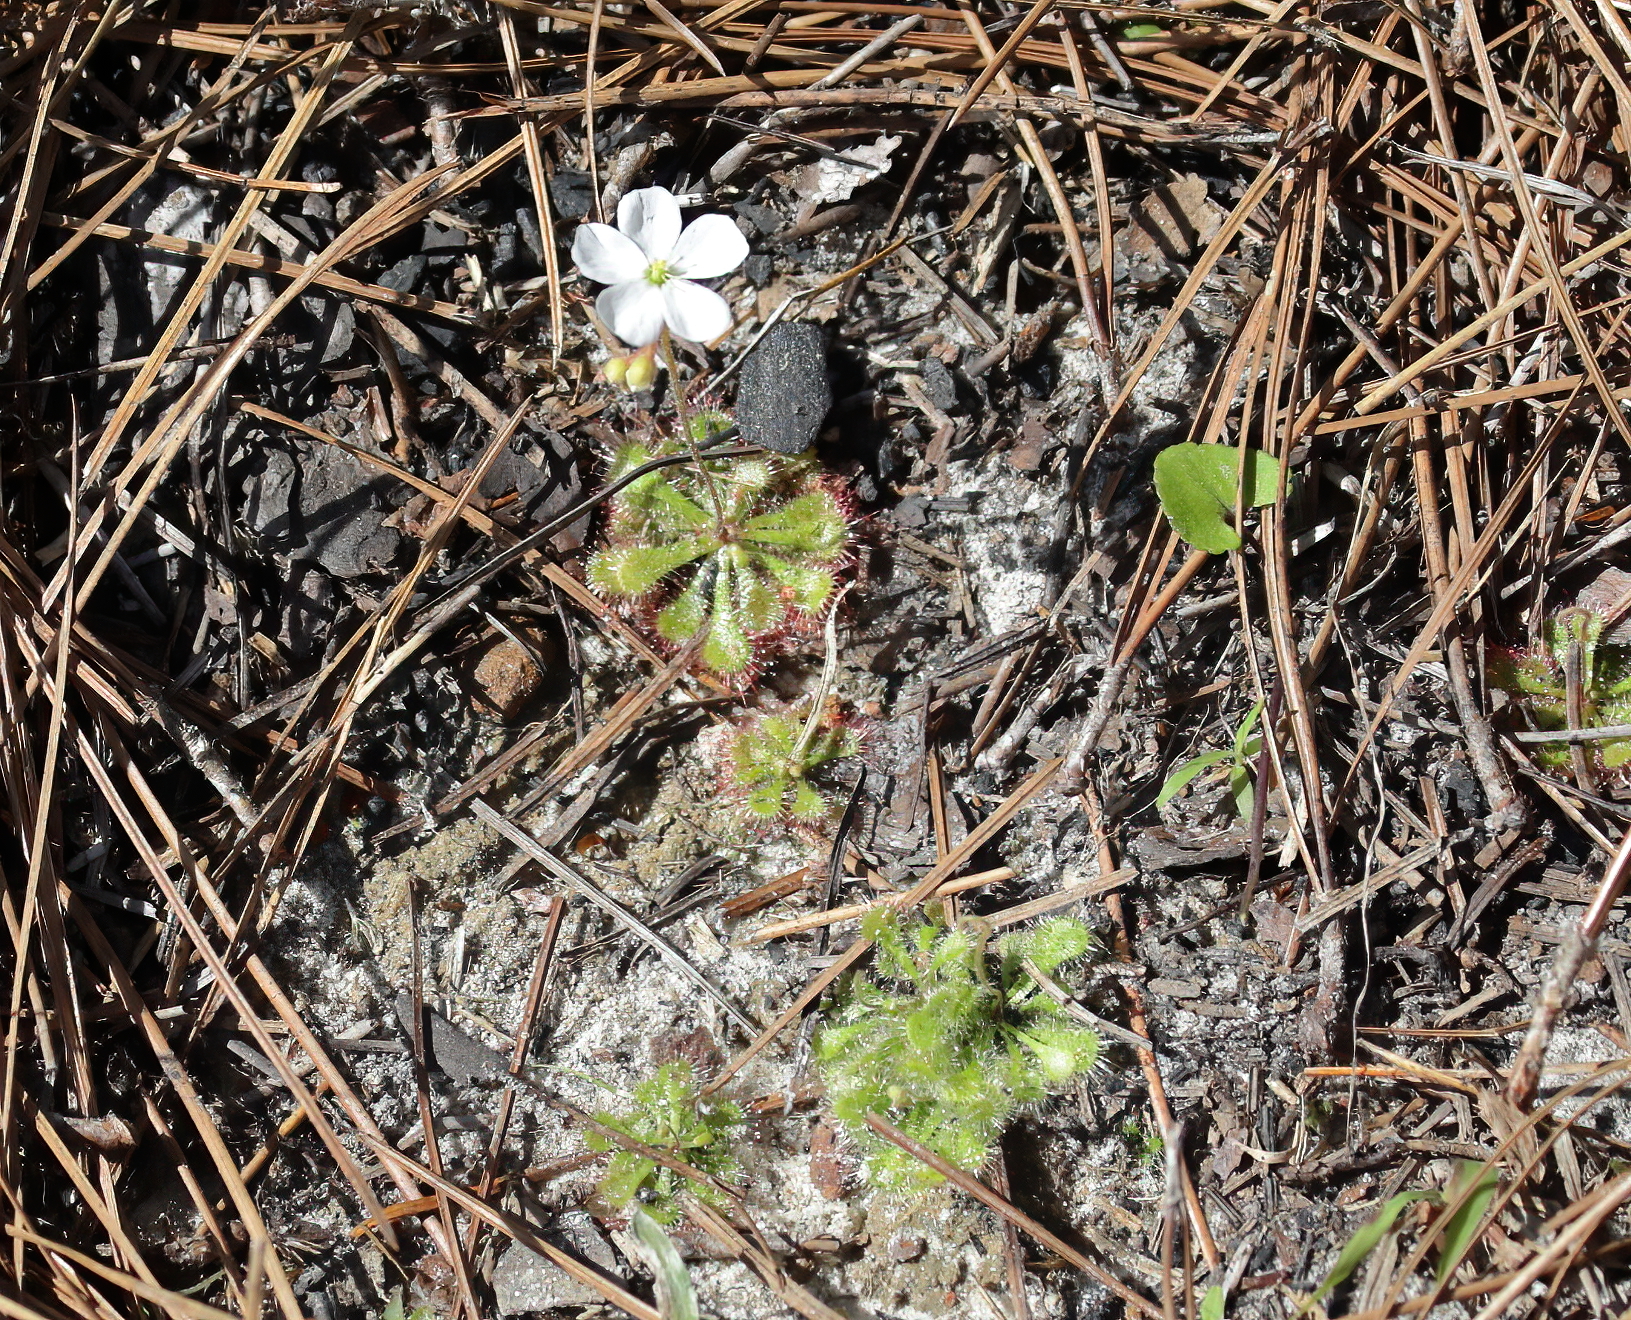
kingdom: Plantae
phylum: Tracheophyta
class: Magnoliopsida
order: Caryophyllales
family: Droseraceae
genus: Drosera
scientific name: Drosera brevifolia
